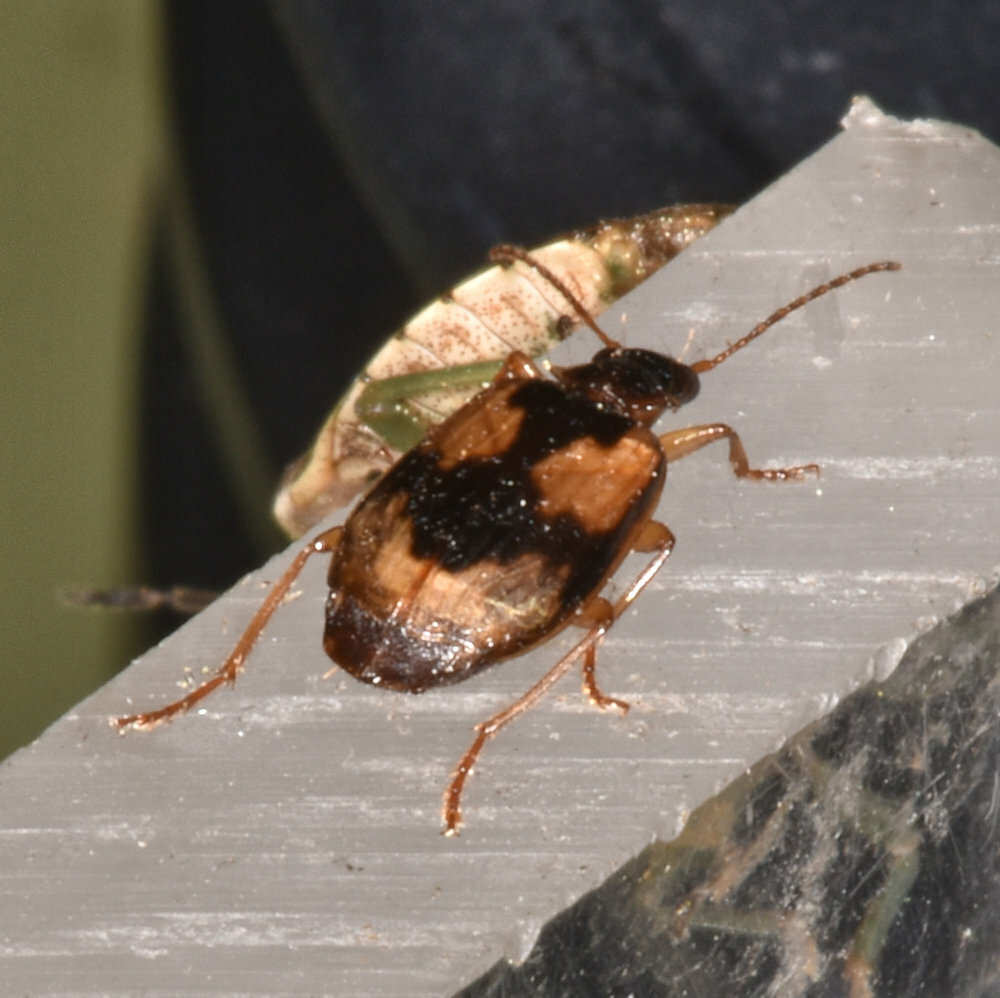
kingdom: Animalia
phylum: Arthropoda
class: Insecta
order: Coleoptera
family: Carabidae
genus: Lebia
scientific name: Lebia fuscata
